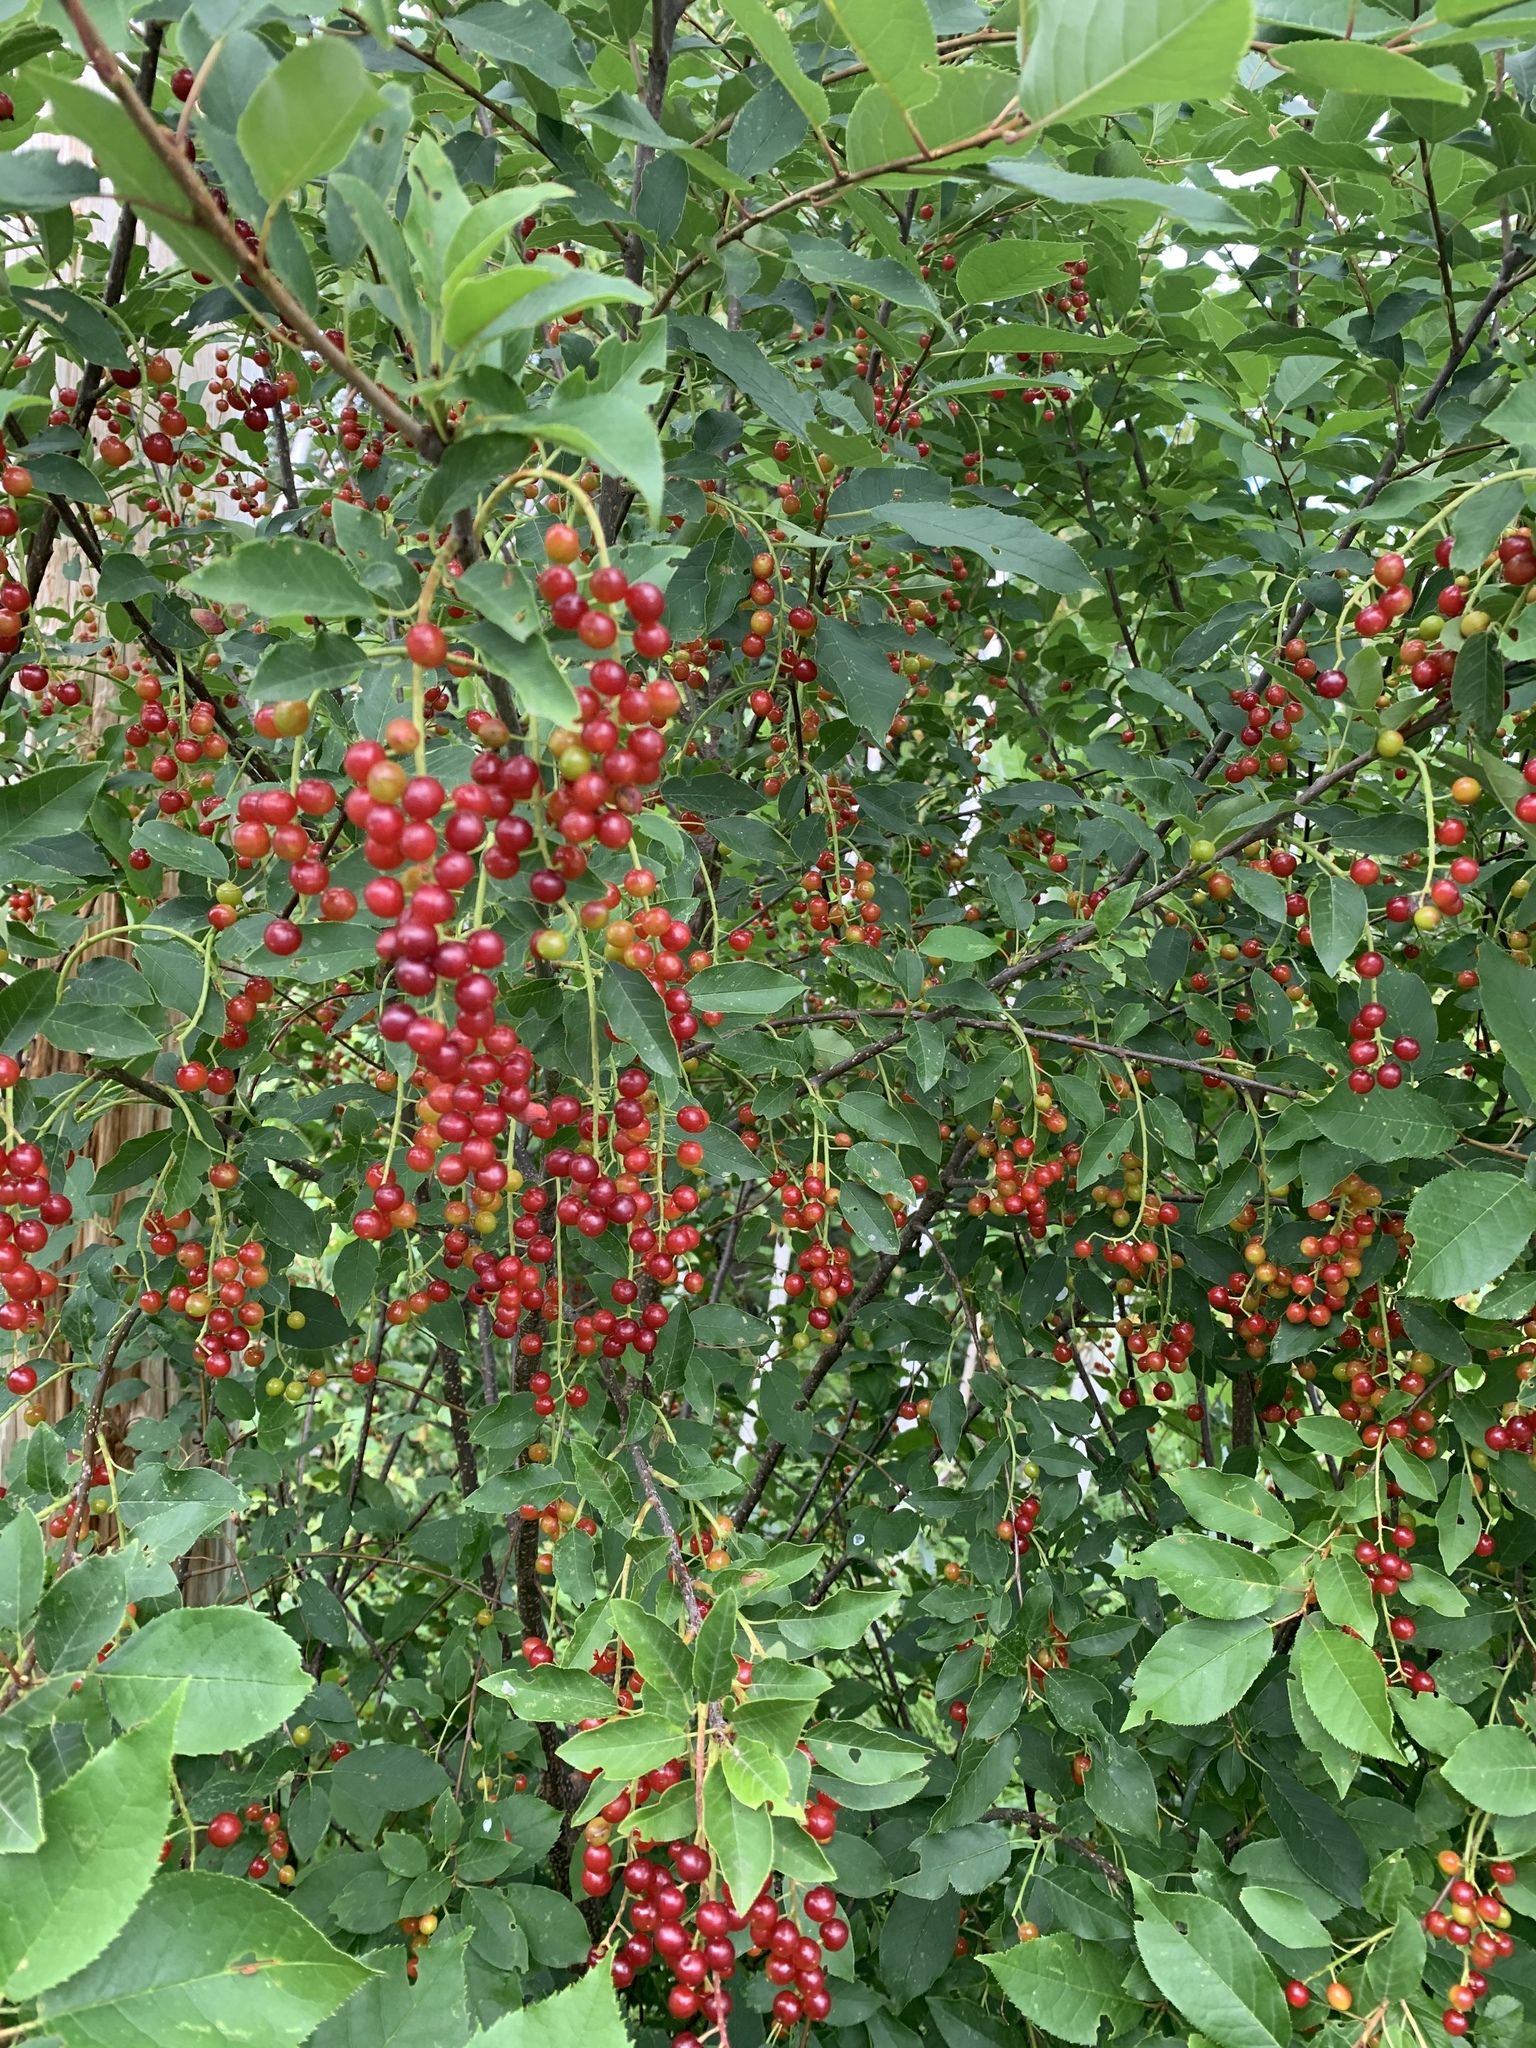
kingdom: Plantae
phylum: Tracheophyta
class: Magnoliopsida
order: Rosales
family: Rosaceae
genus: Prunus
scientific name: Prunus virginiana
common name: Chokecherry
